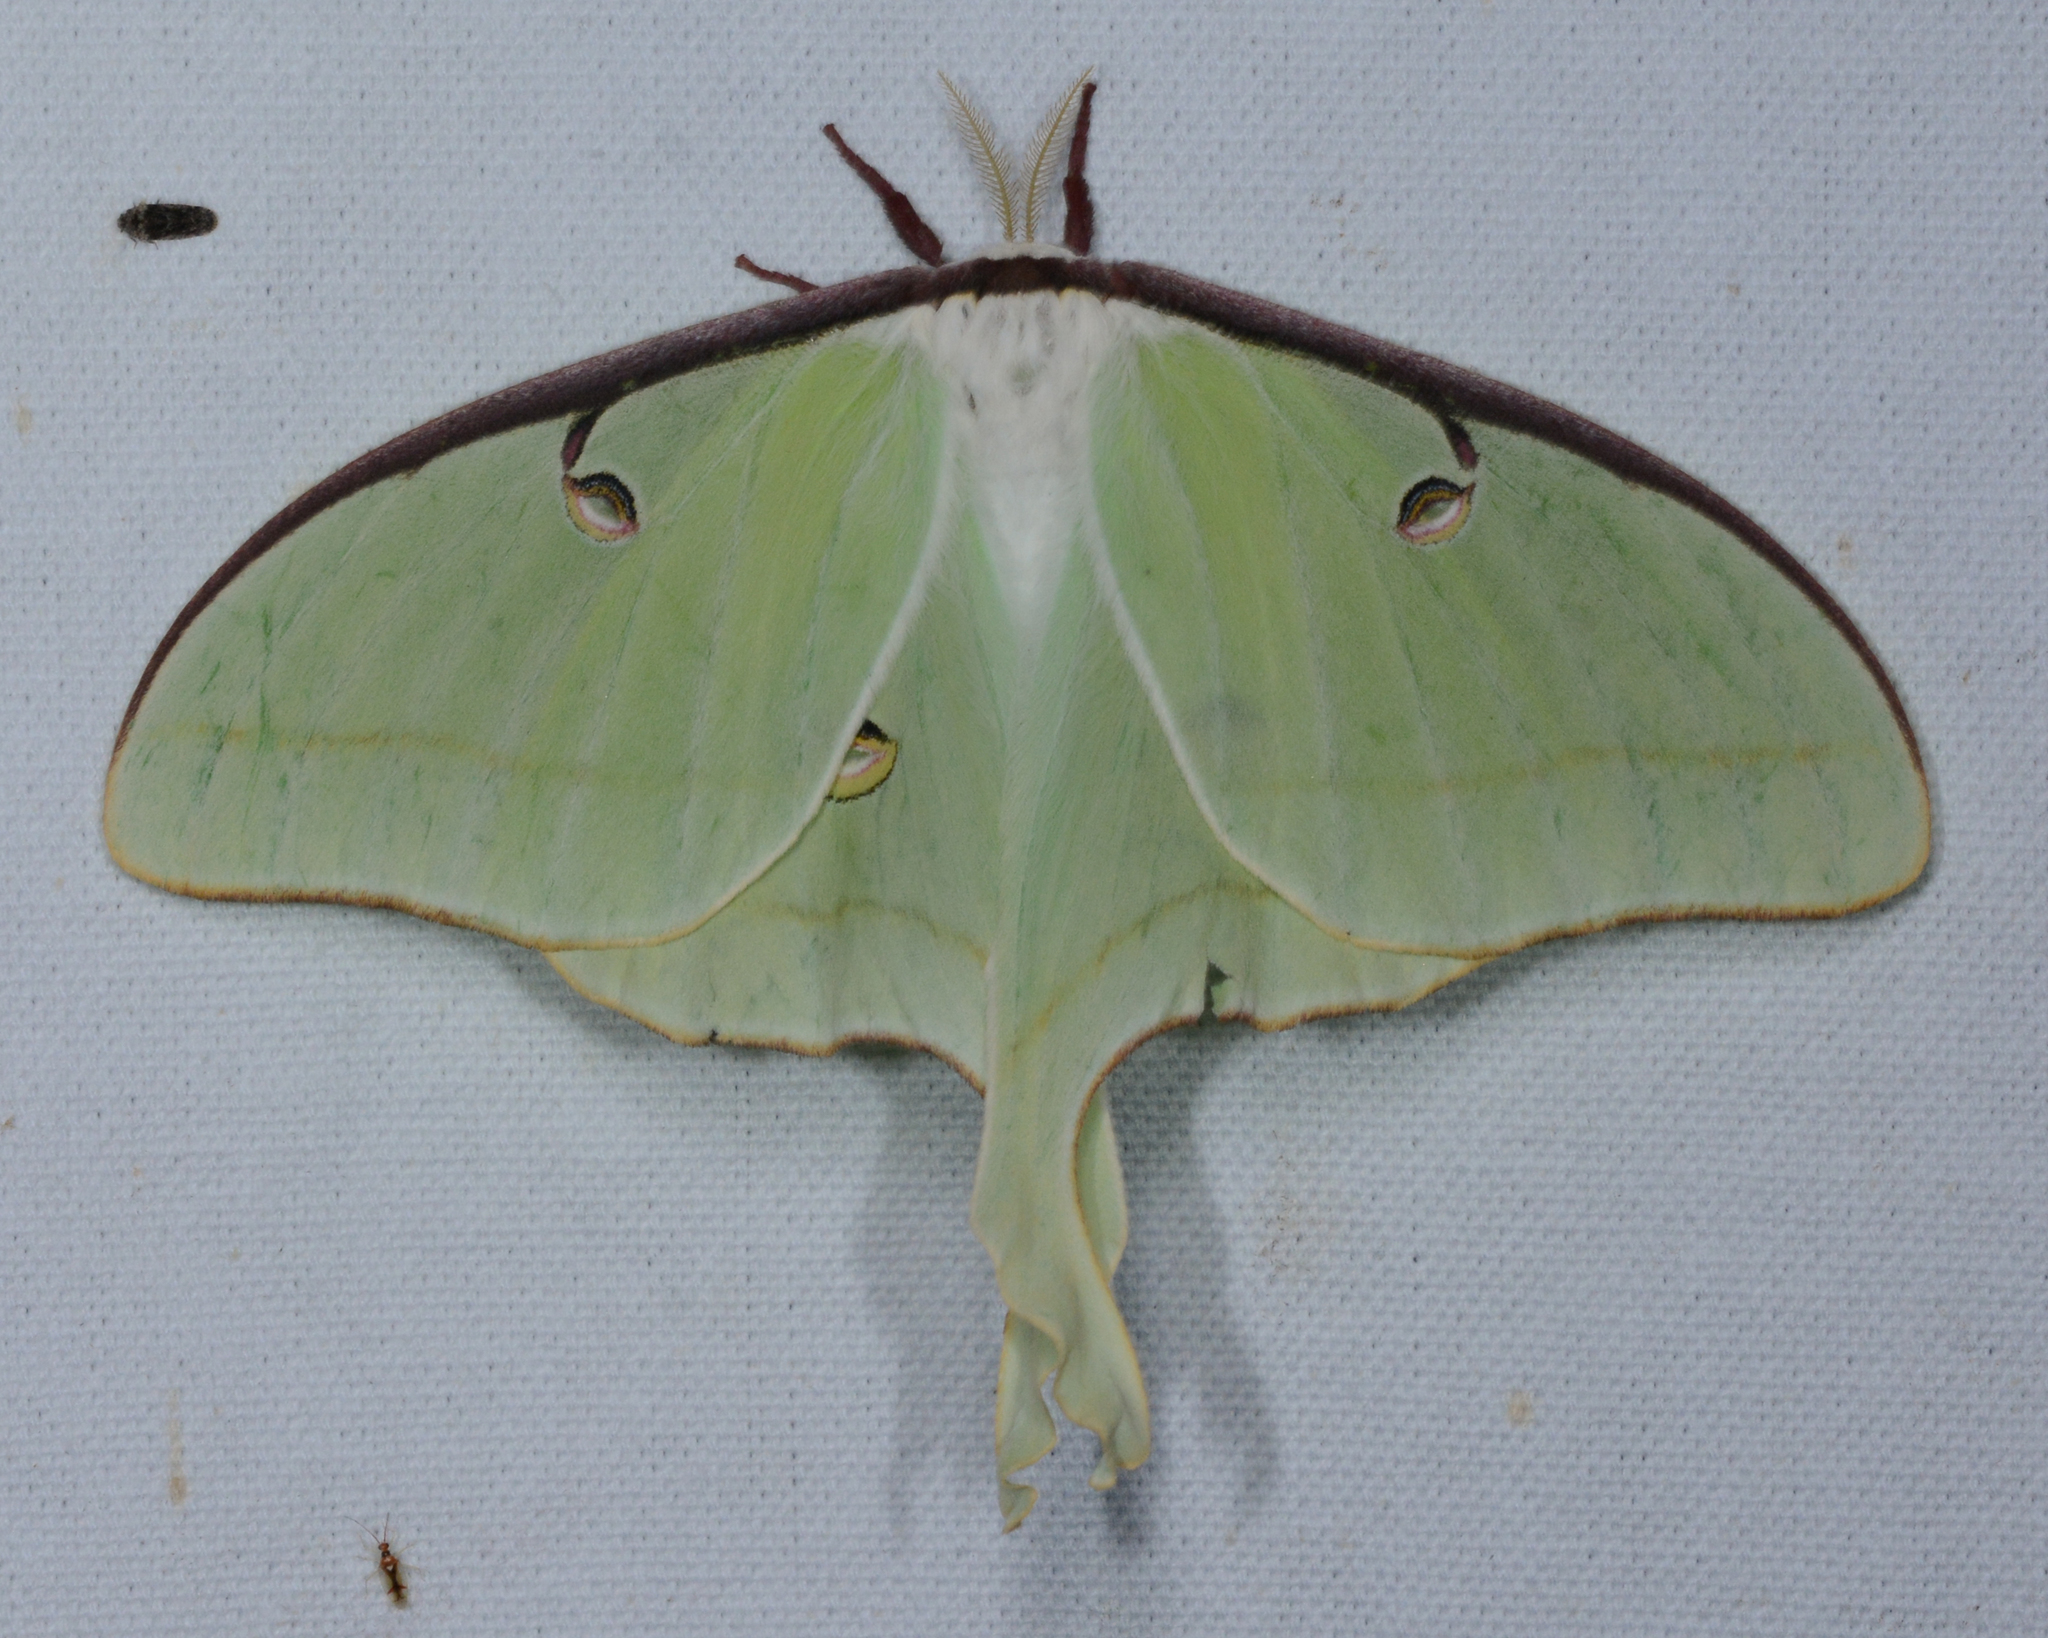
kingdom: Animalia
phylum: Arthropoda
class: Insecta
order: Lepidoptera
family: Saturniidae
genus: Actias
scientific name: Actias luna
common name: Luna moth
